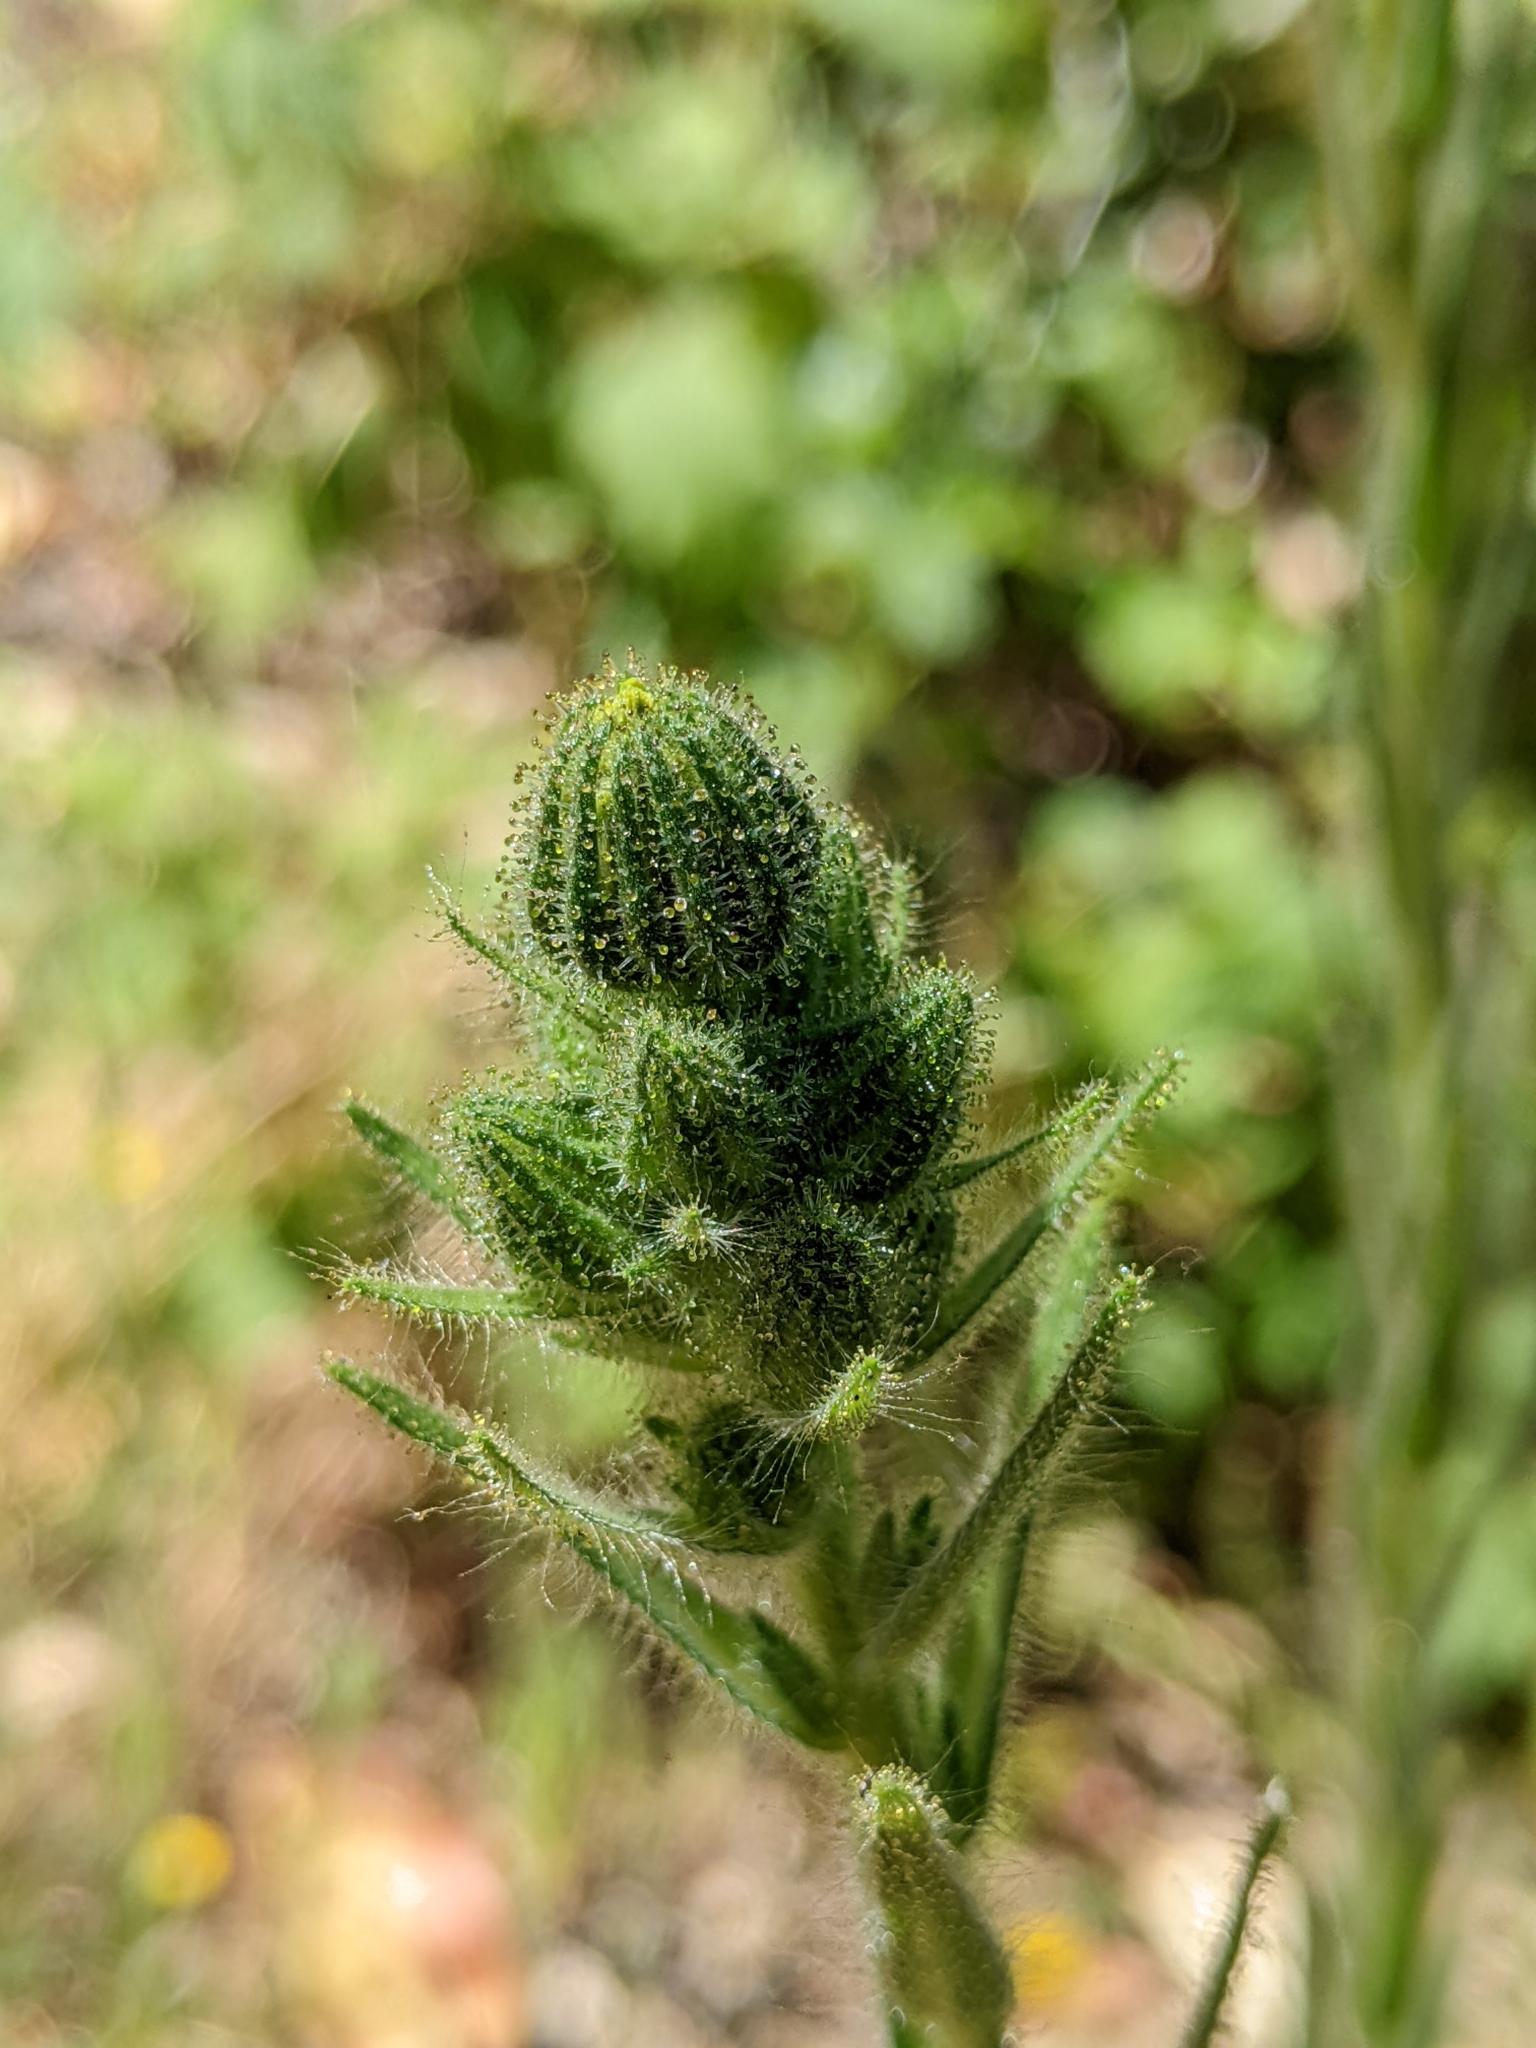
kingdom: Plantae
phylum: Tracheophyta
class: Magnoliopsida
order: Asterales
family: Asteraceae
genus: Madia
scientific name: Madia sativa
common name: Coast tarweed
